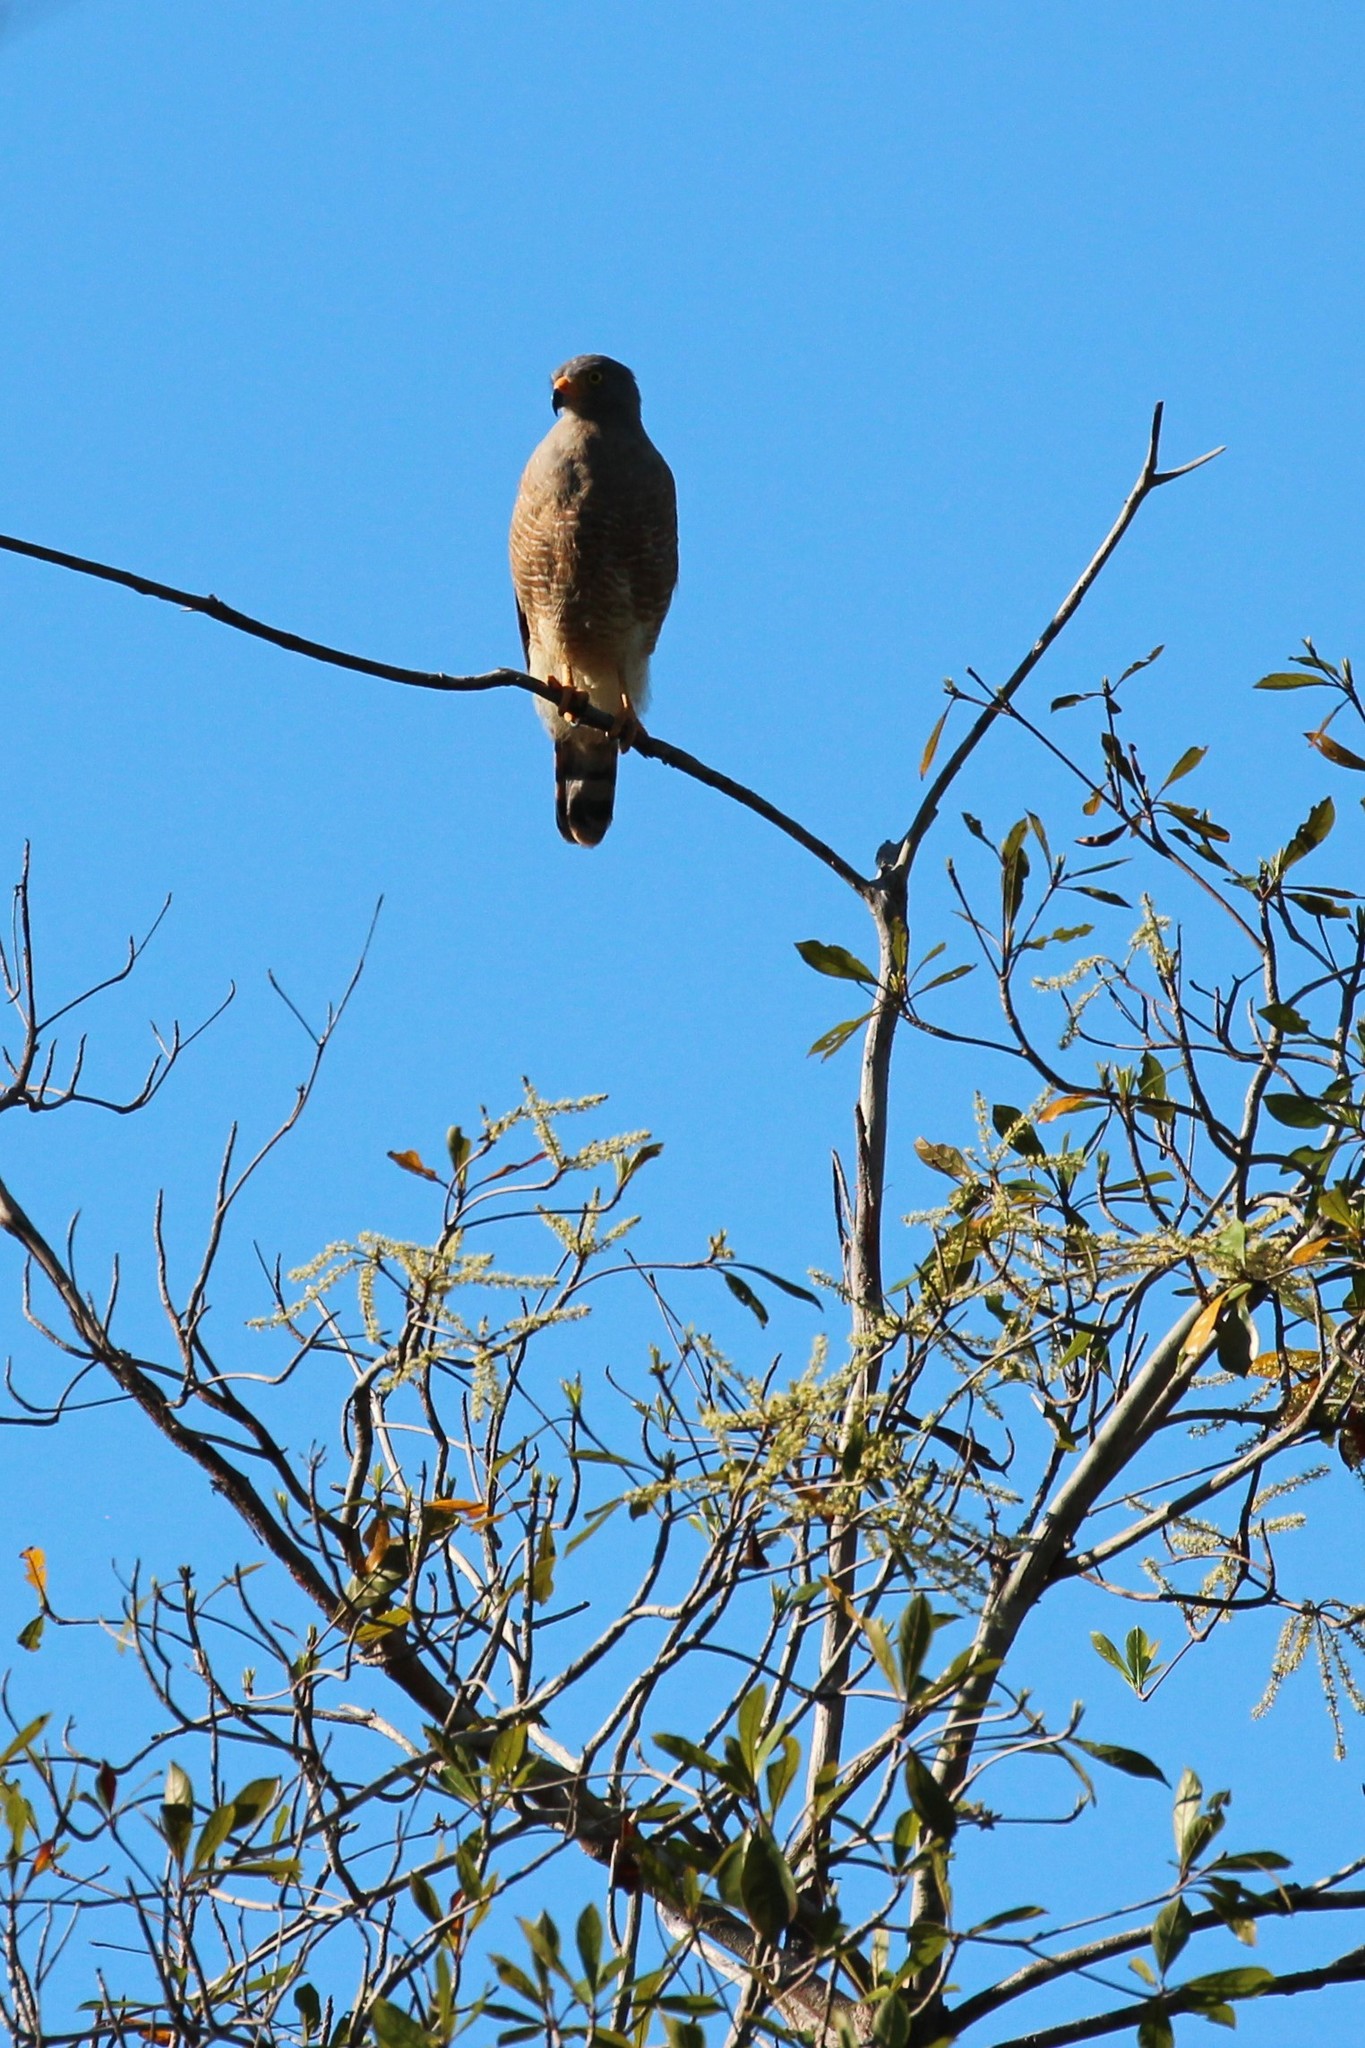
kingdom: Animalia
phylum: Chordata
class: Aves
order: Accipitriformes
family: Accipitridae
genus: Rupornis
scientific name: Rupornis magnirostris
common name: Roadside hawk
